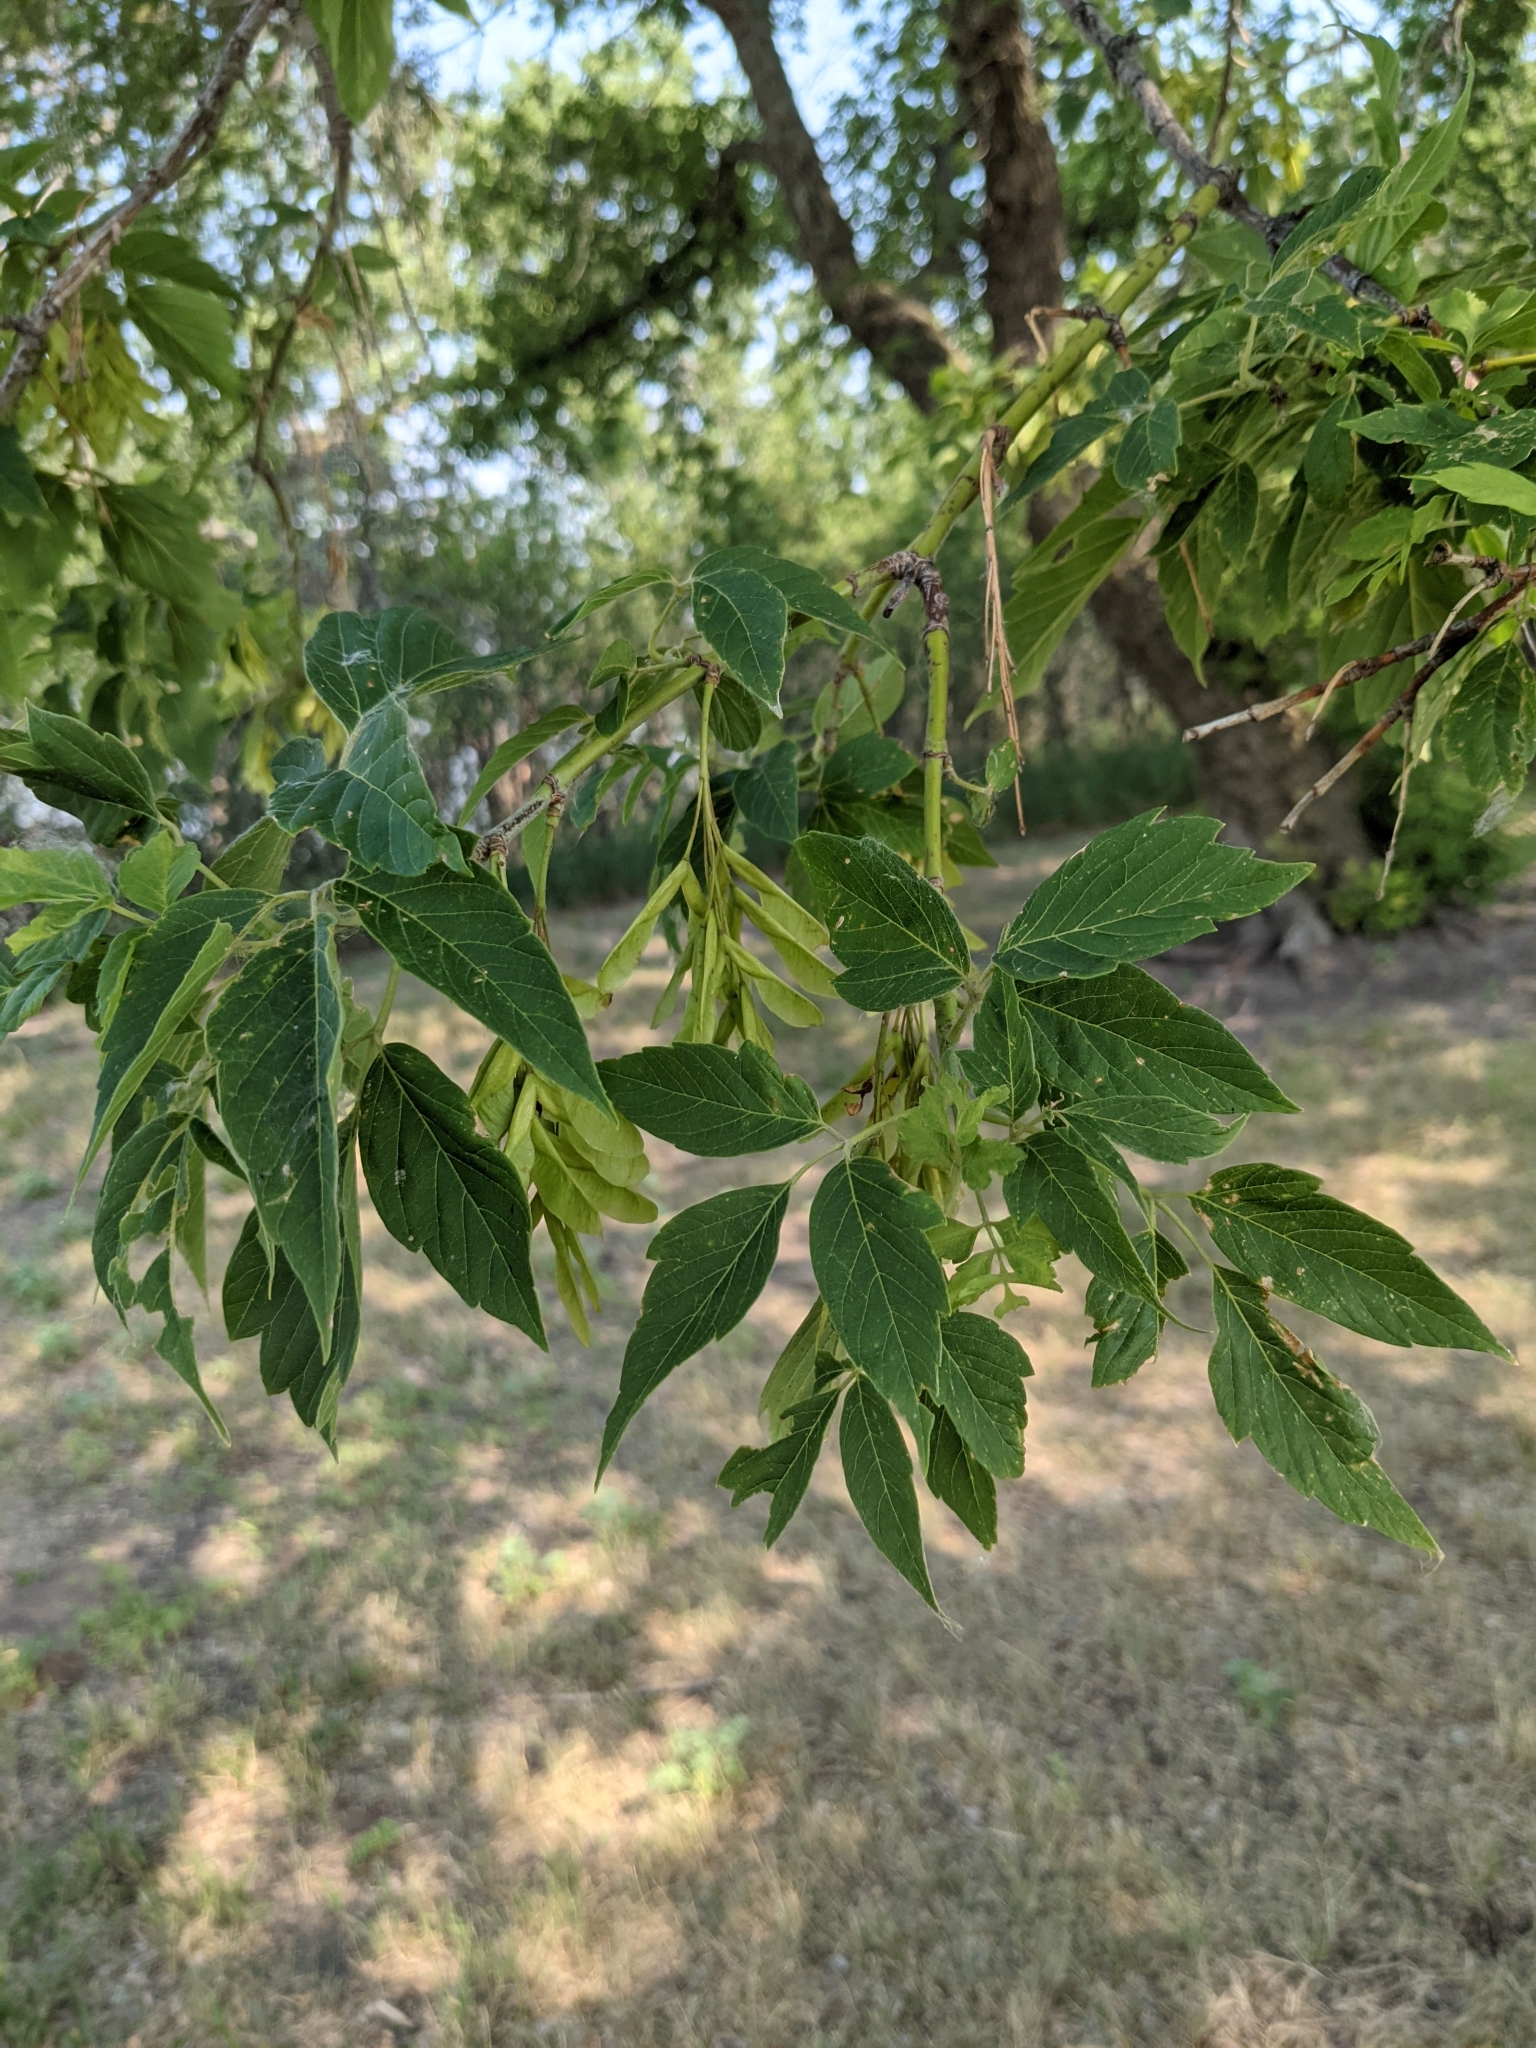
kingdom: Plantae
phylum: Tracheophyta
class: Magnoliopsida
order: Sapindales
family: Sapindaceae
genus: Acer
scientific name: Acer negundo
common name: Ashleaf maple
